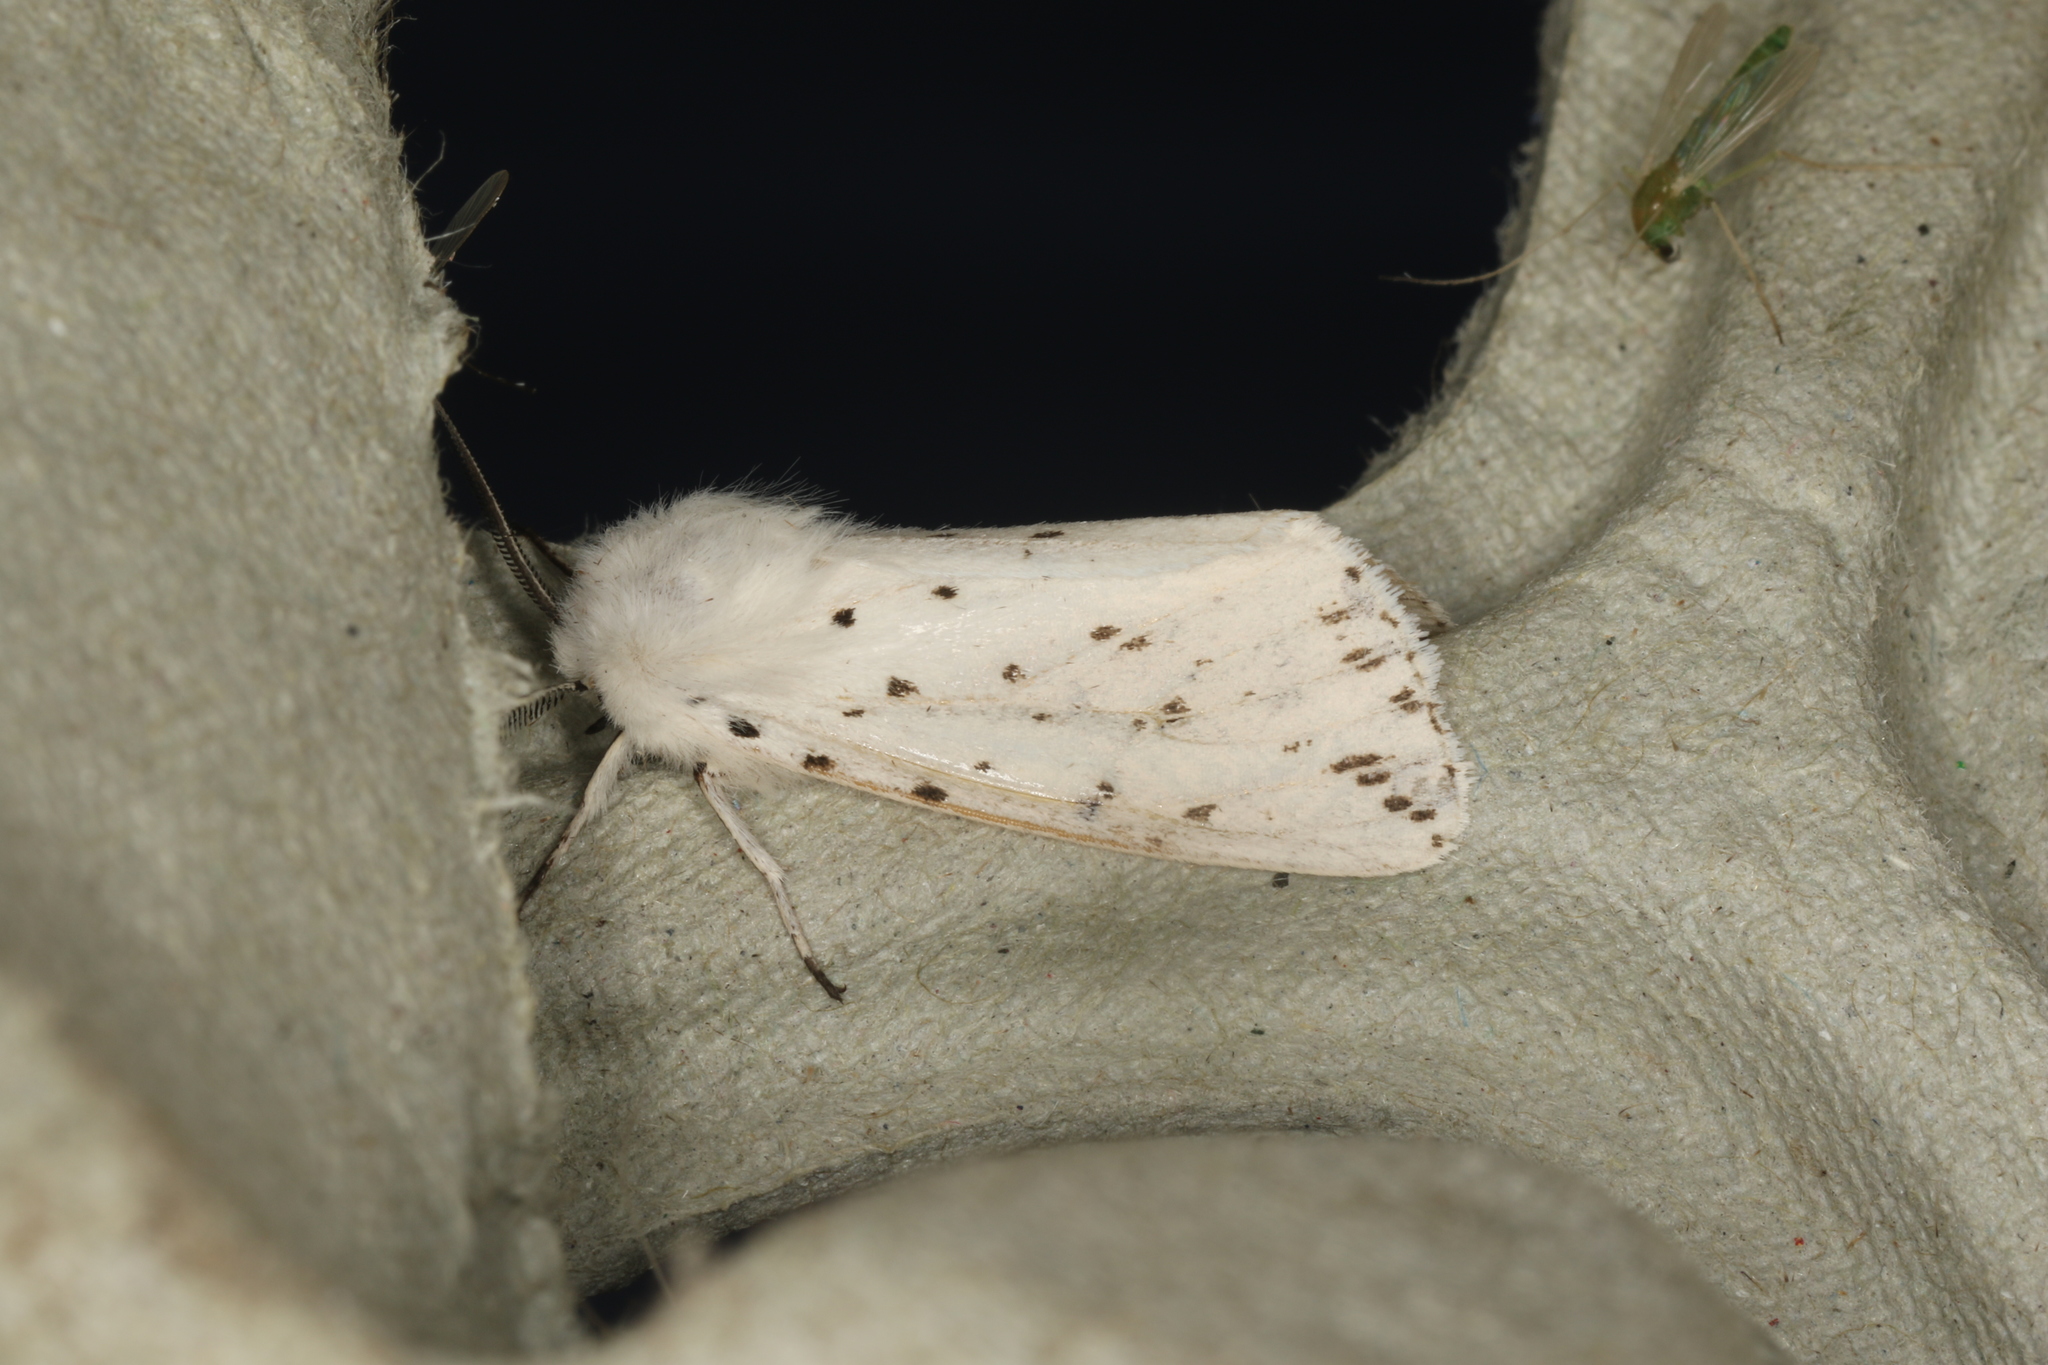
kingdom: Animalia
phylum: Arthropoda
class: Insecta
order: Lepidoptera
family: Erebidae
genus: Spilosoma
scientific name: Spilosoma lubricipeda
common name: White ermine
